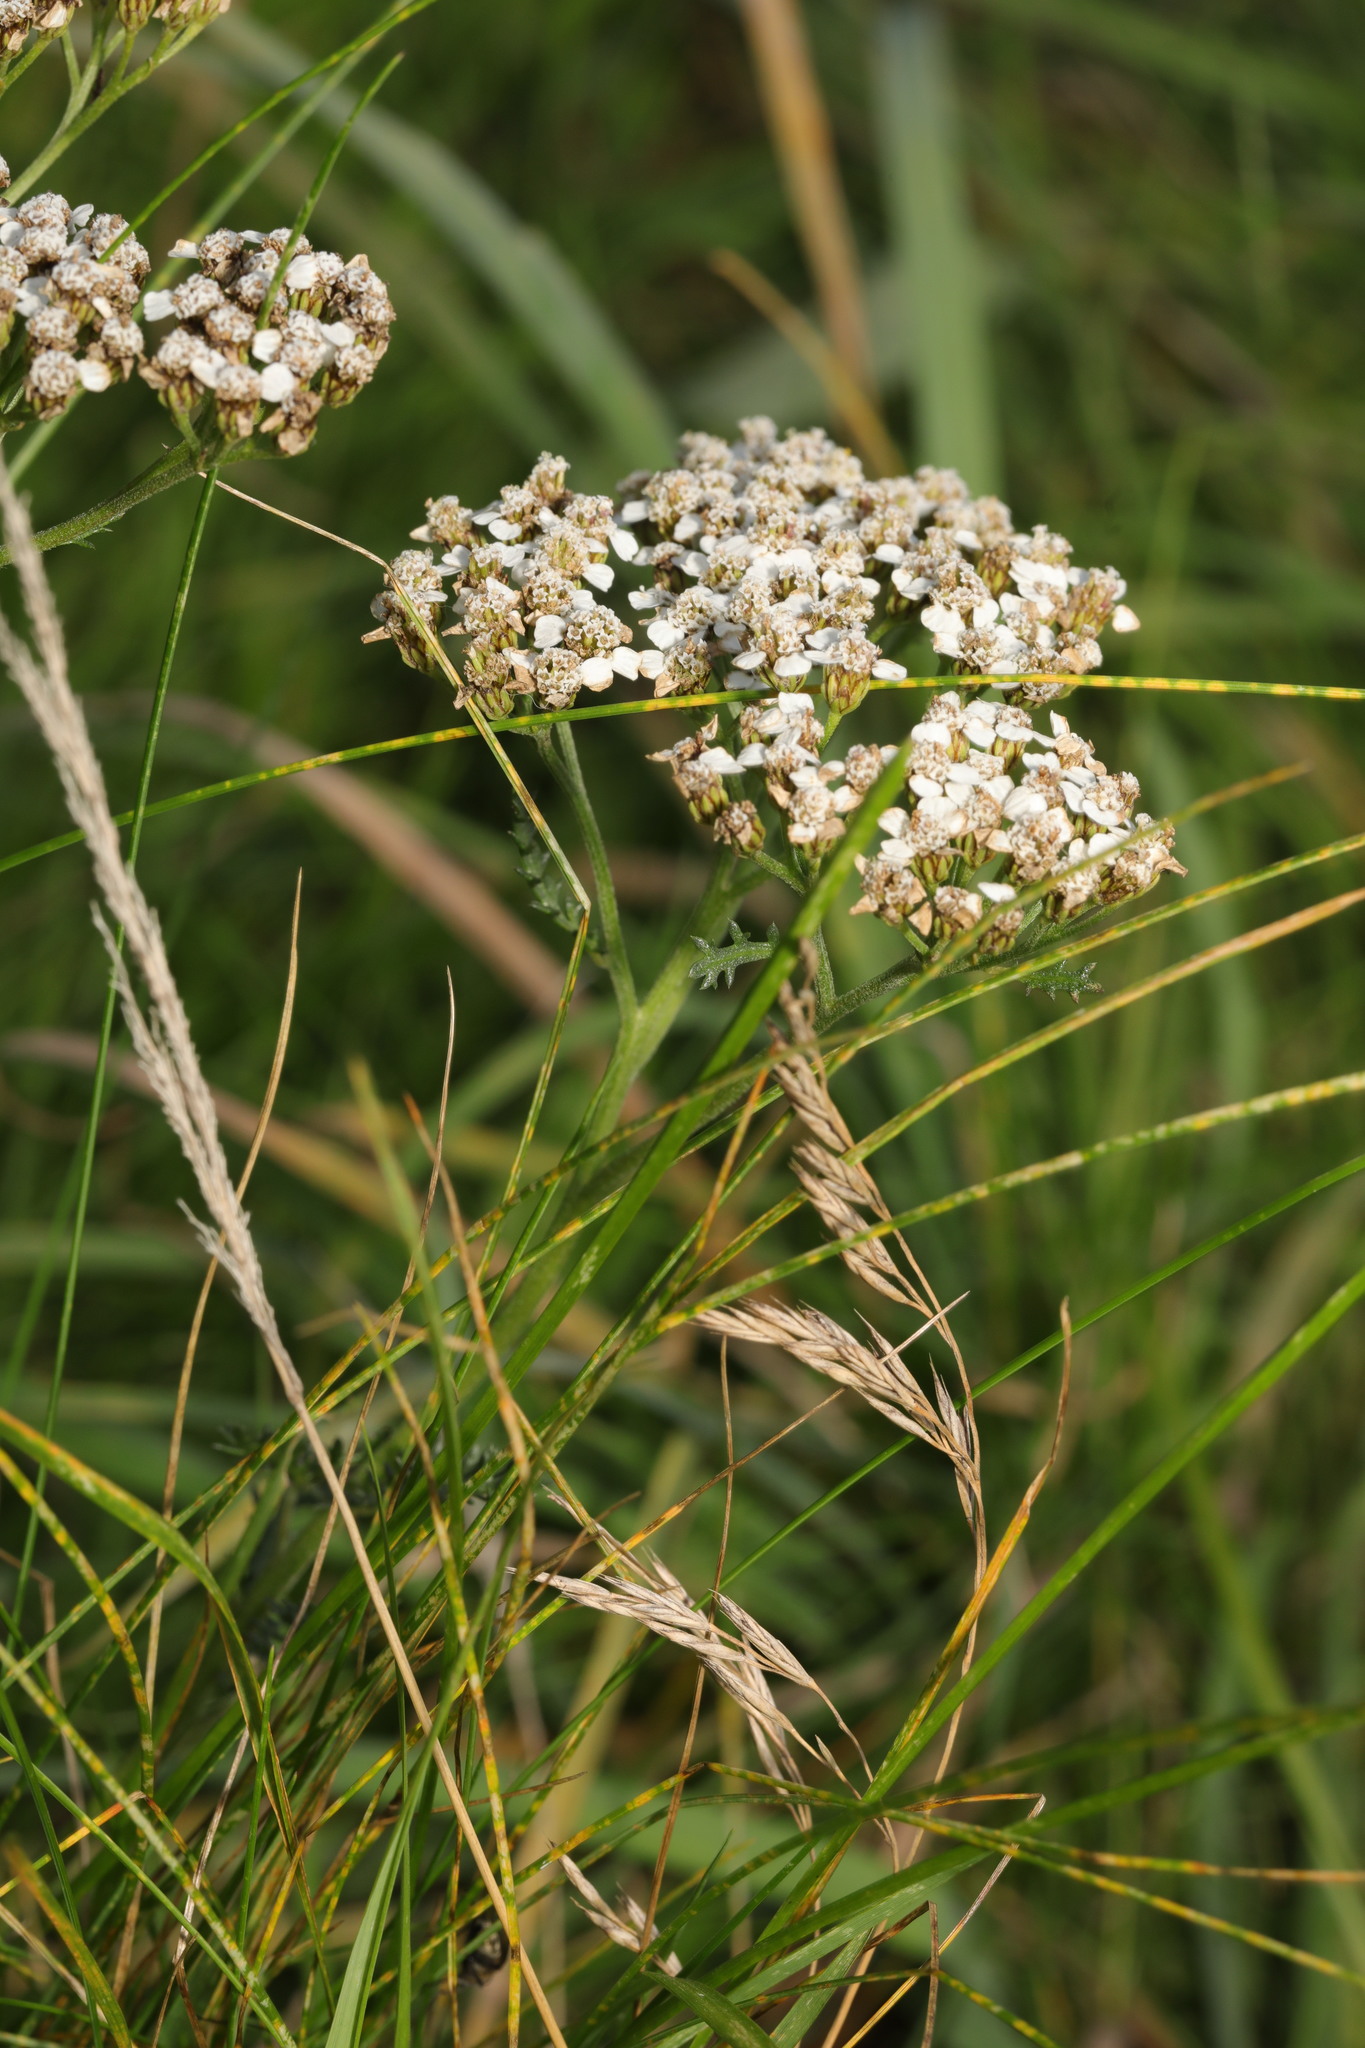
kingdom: Plantae
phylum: Tracheophyta
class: Magnoliopsida
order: Asterales
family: Asteraceae
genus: Achillea
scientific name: Achillea millefolium
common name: Yarrow
